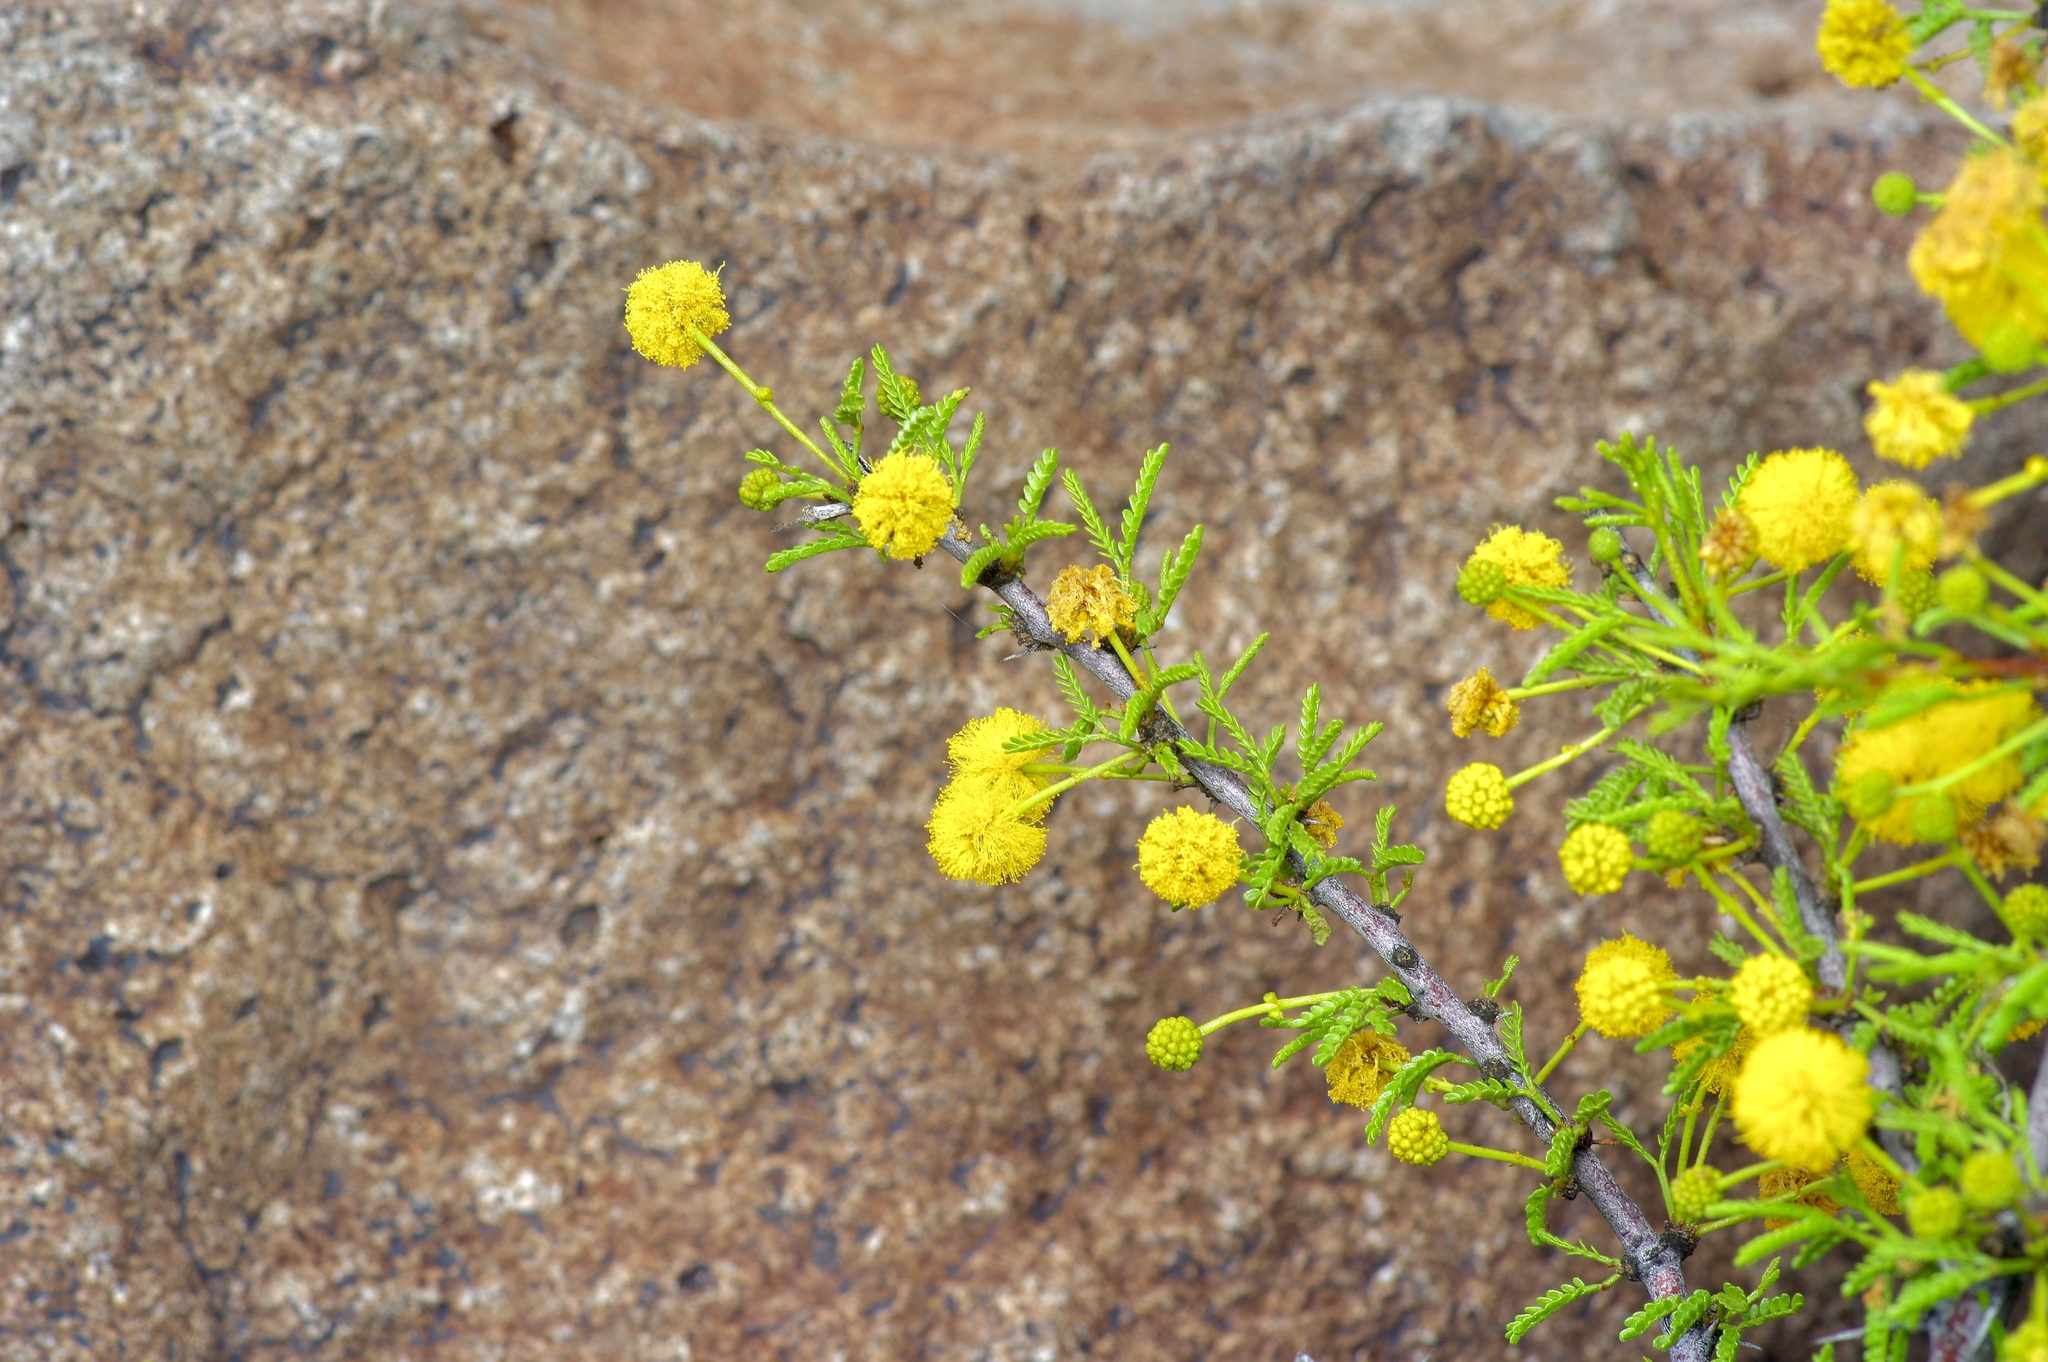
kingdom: Plantae
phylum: Tracheophyta
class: Magnoliopsida
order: Fabales
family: Fabaceae
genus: Vachellia
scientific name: Vachellia vernicosa
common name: Viscid acacia
